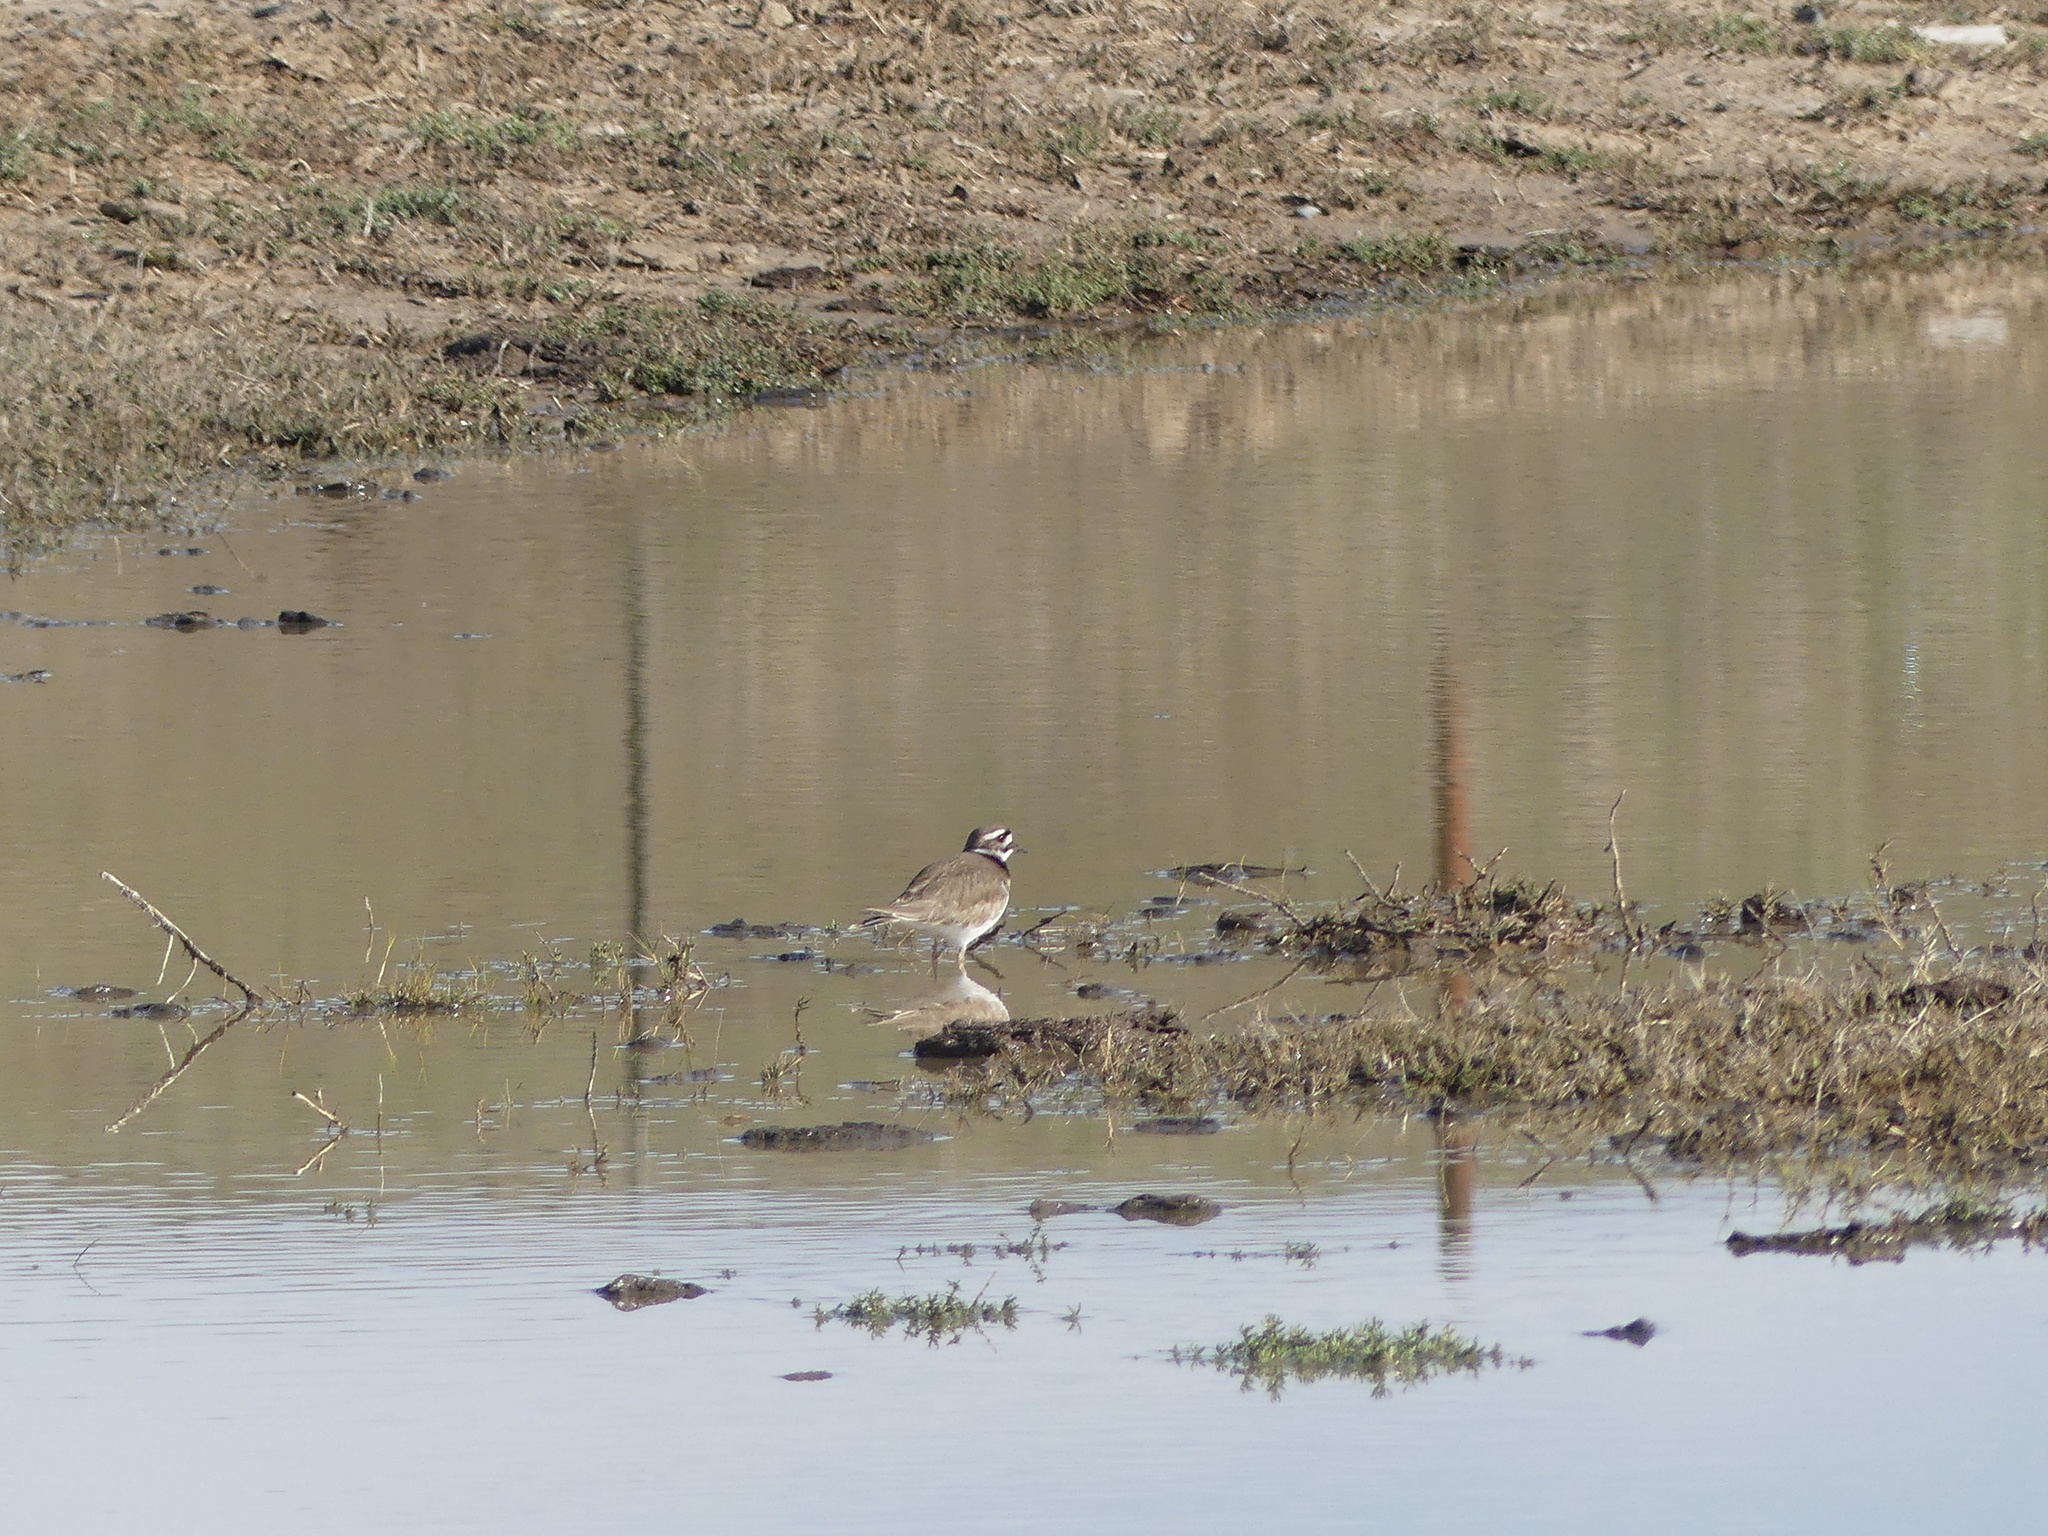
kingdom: Animalia
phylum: Chordata
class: Aves
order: Charadriiformes
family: Charadriidae
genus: Charadrius
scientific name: Charadrius vociferus
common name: Killdeer
